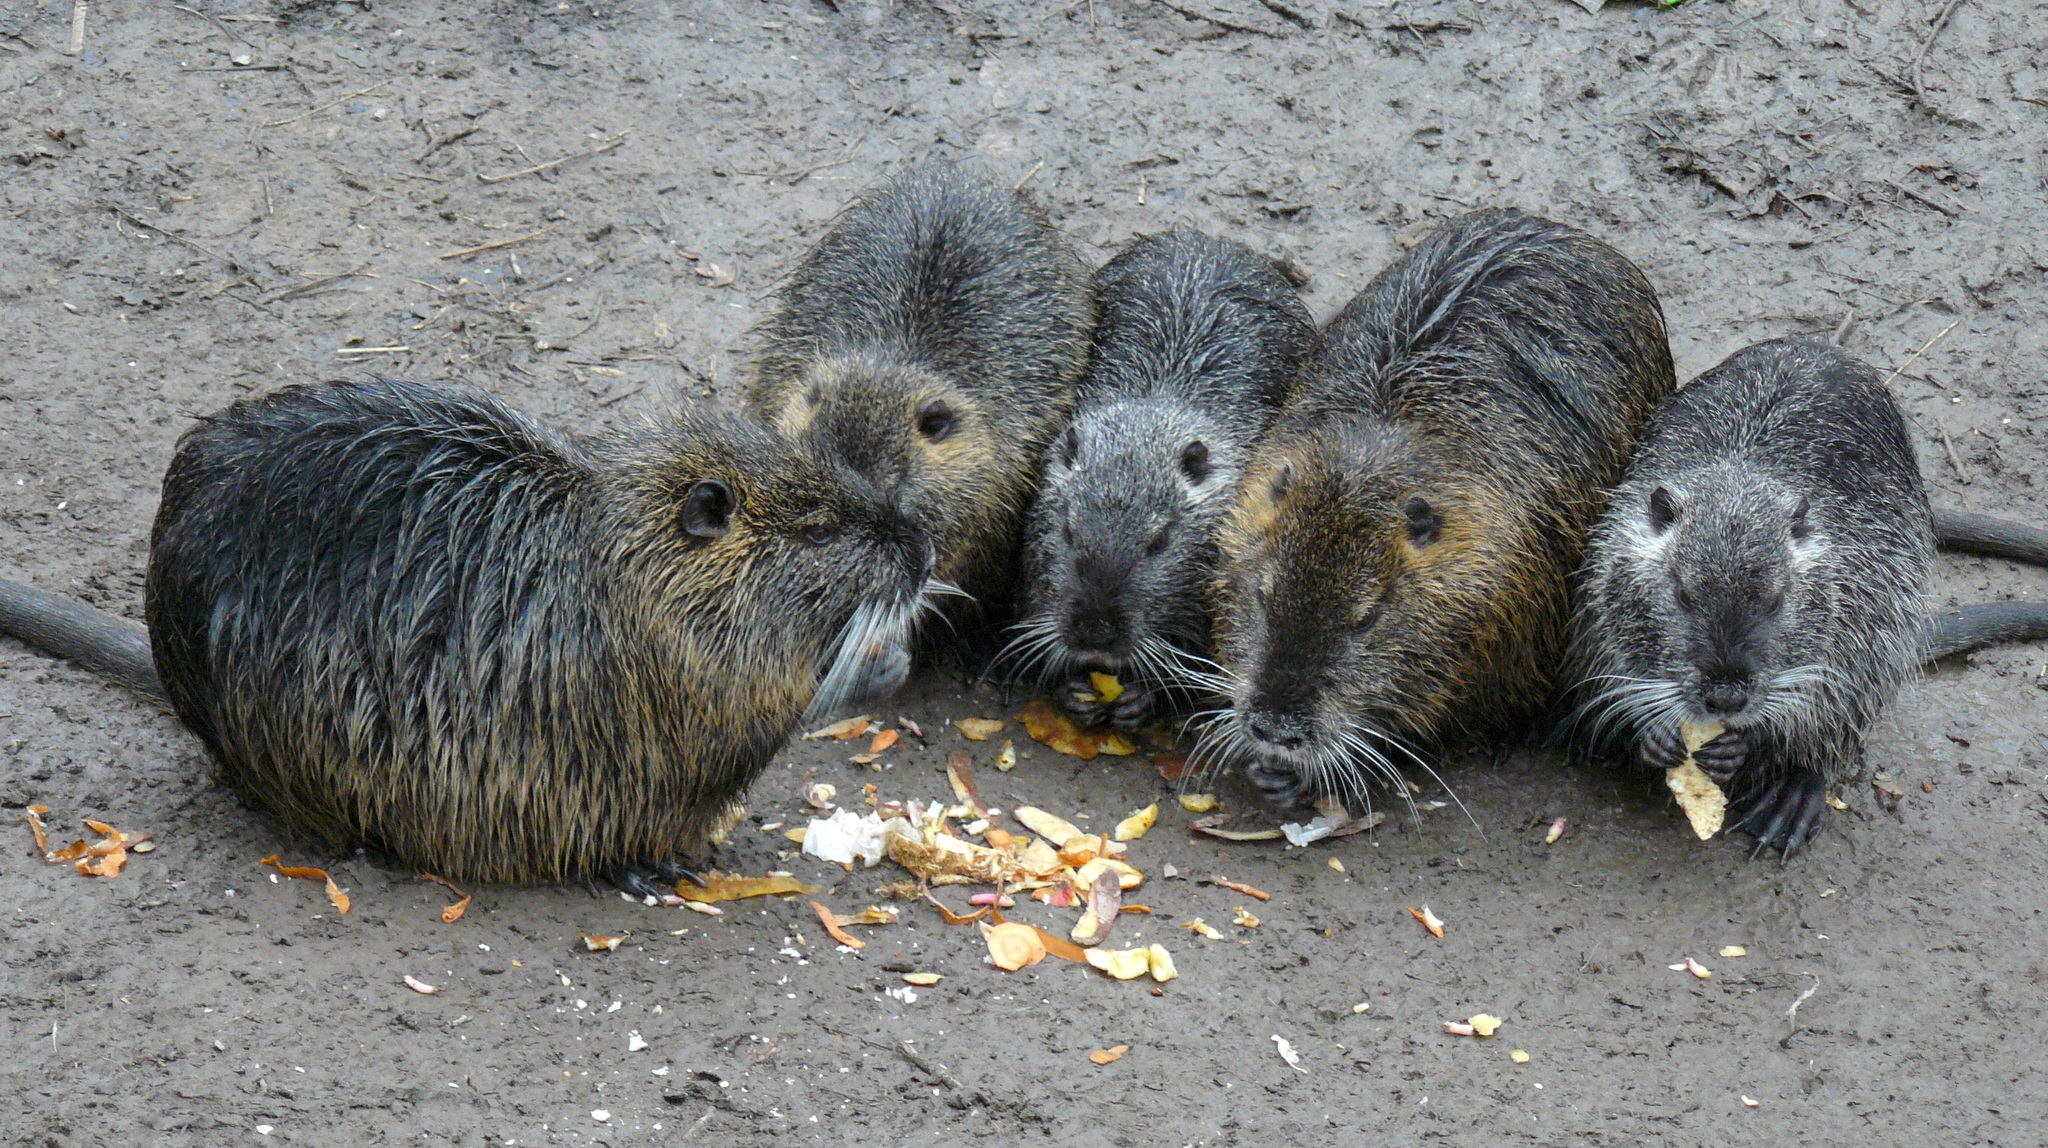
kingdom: Animalia
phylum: Chordata
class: Mammalia
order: Rodentia
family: Myocastoridae
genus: Myocastor
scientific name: Myocastor coypus
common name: Coypu
